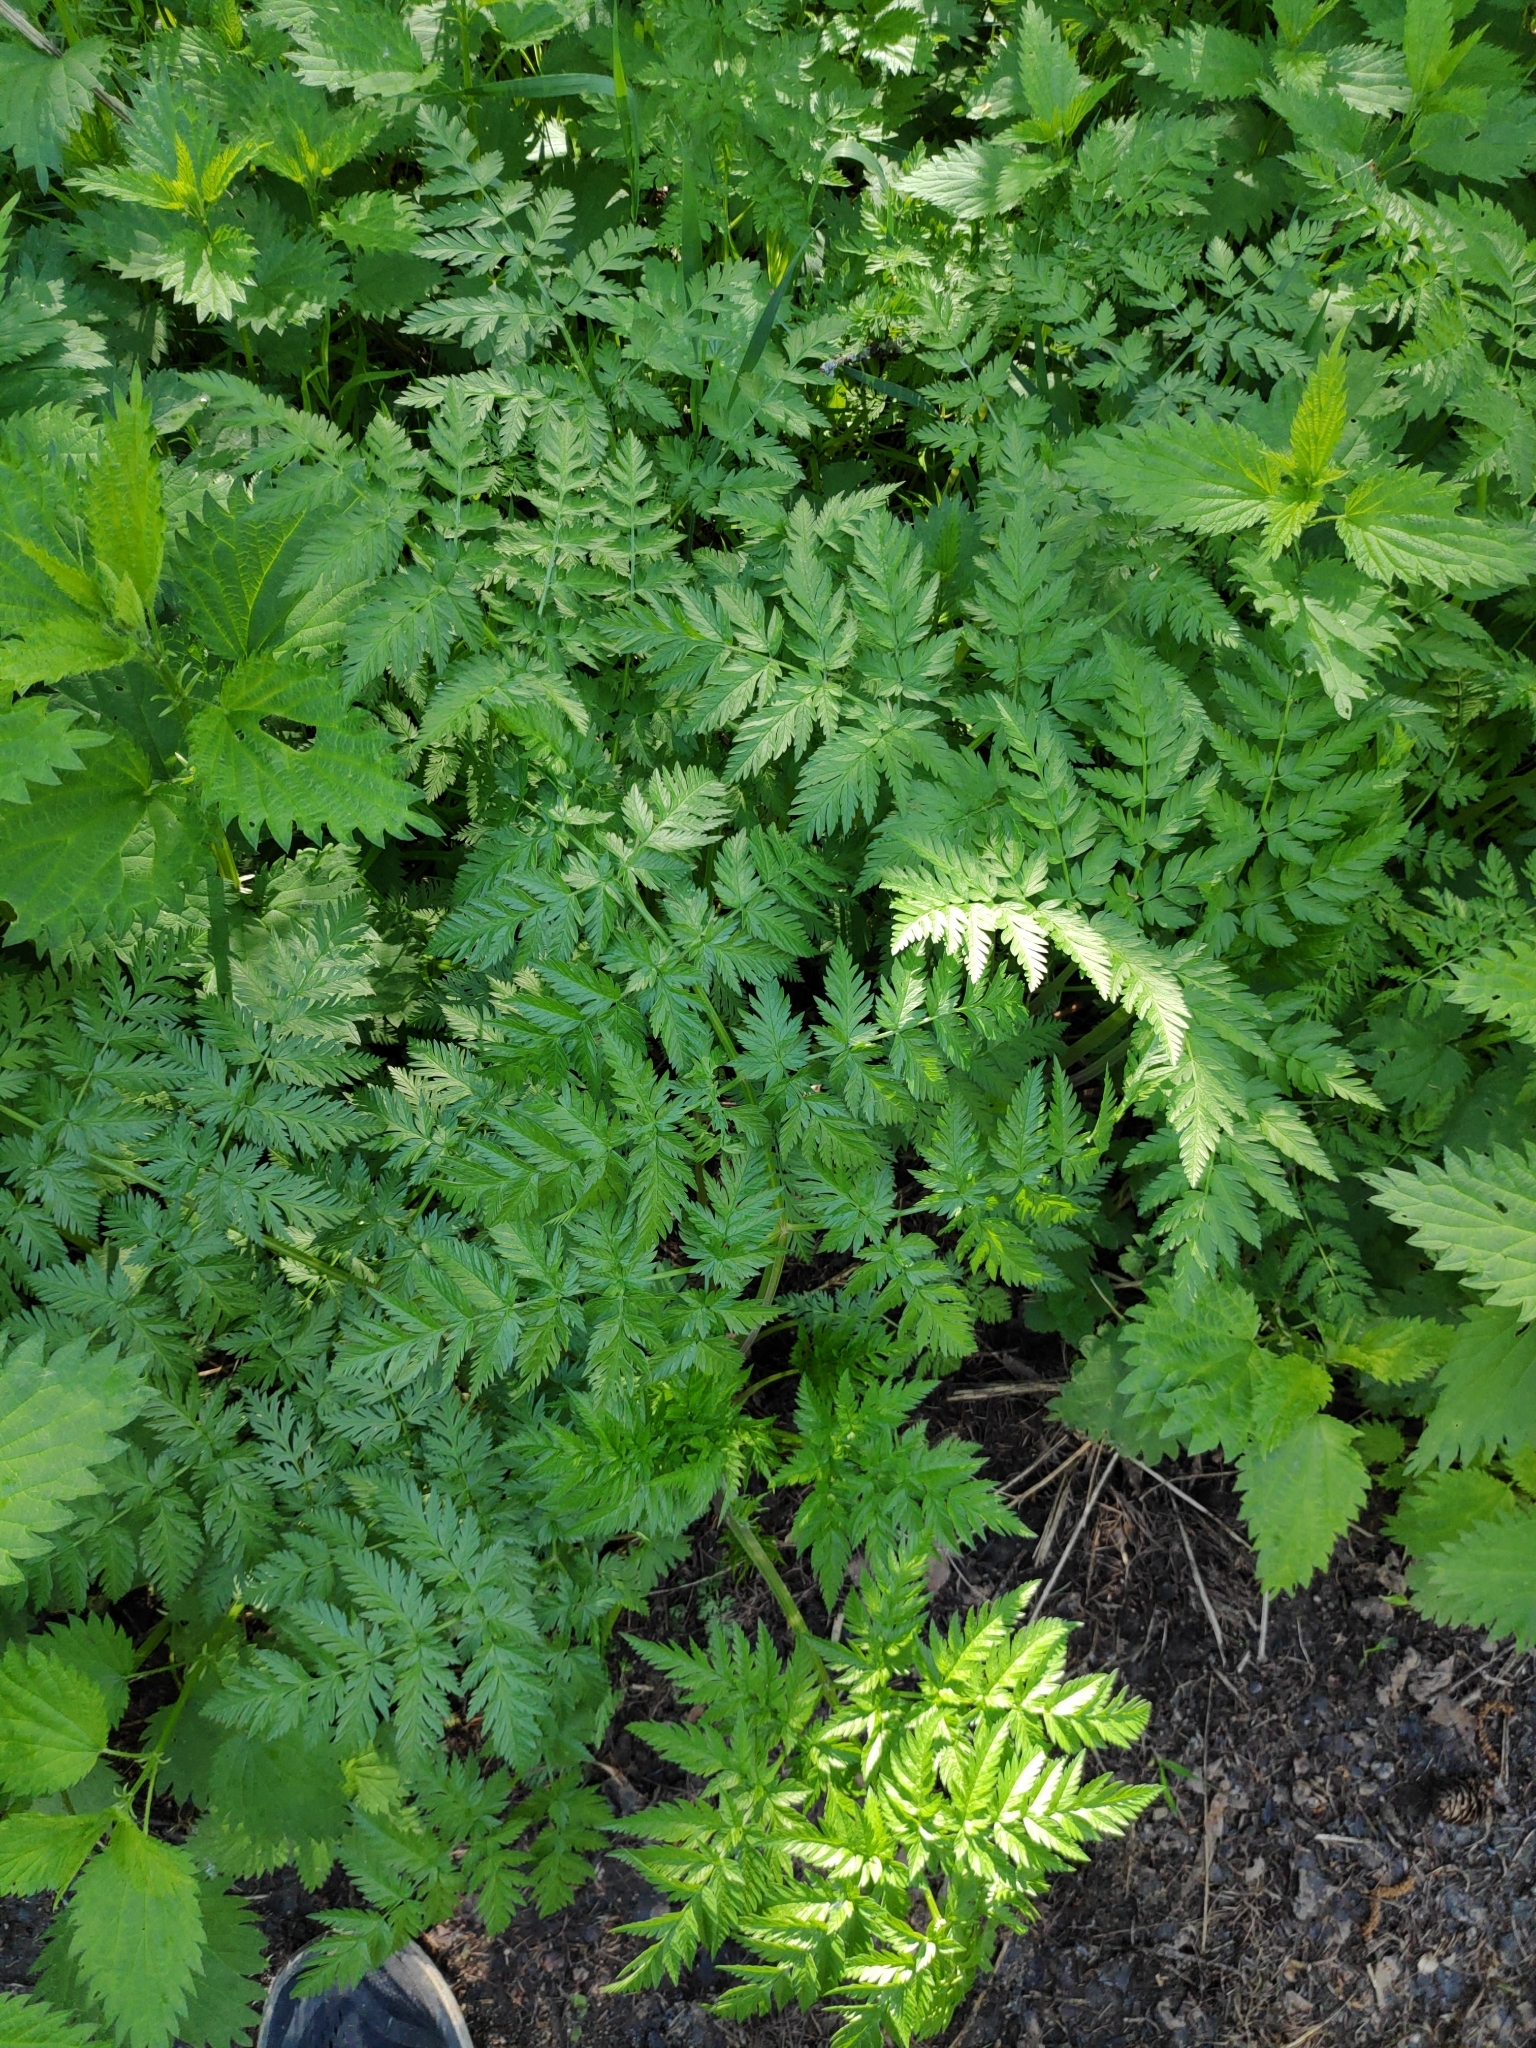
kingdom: Plantae
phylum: Tracheophyta
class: Magnoliopsida
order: Apiales
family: Apiaceae
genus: Anthriscus
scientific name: Anthriscus sylvestris
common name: Cow parsley
